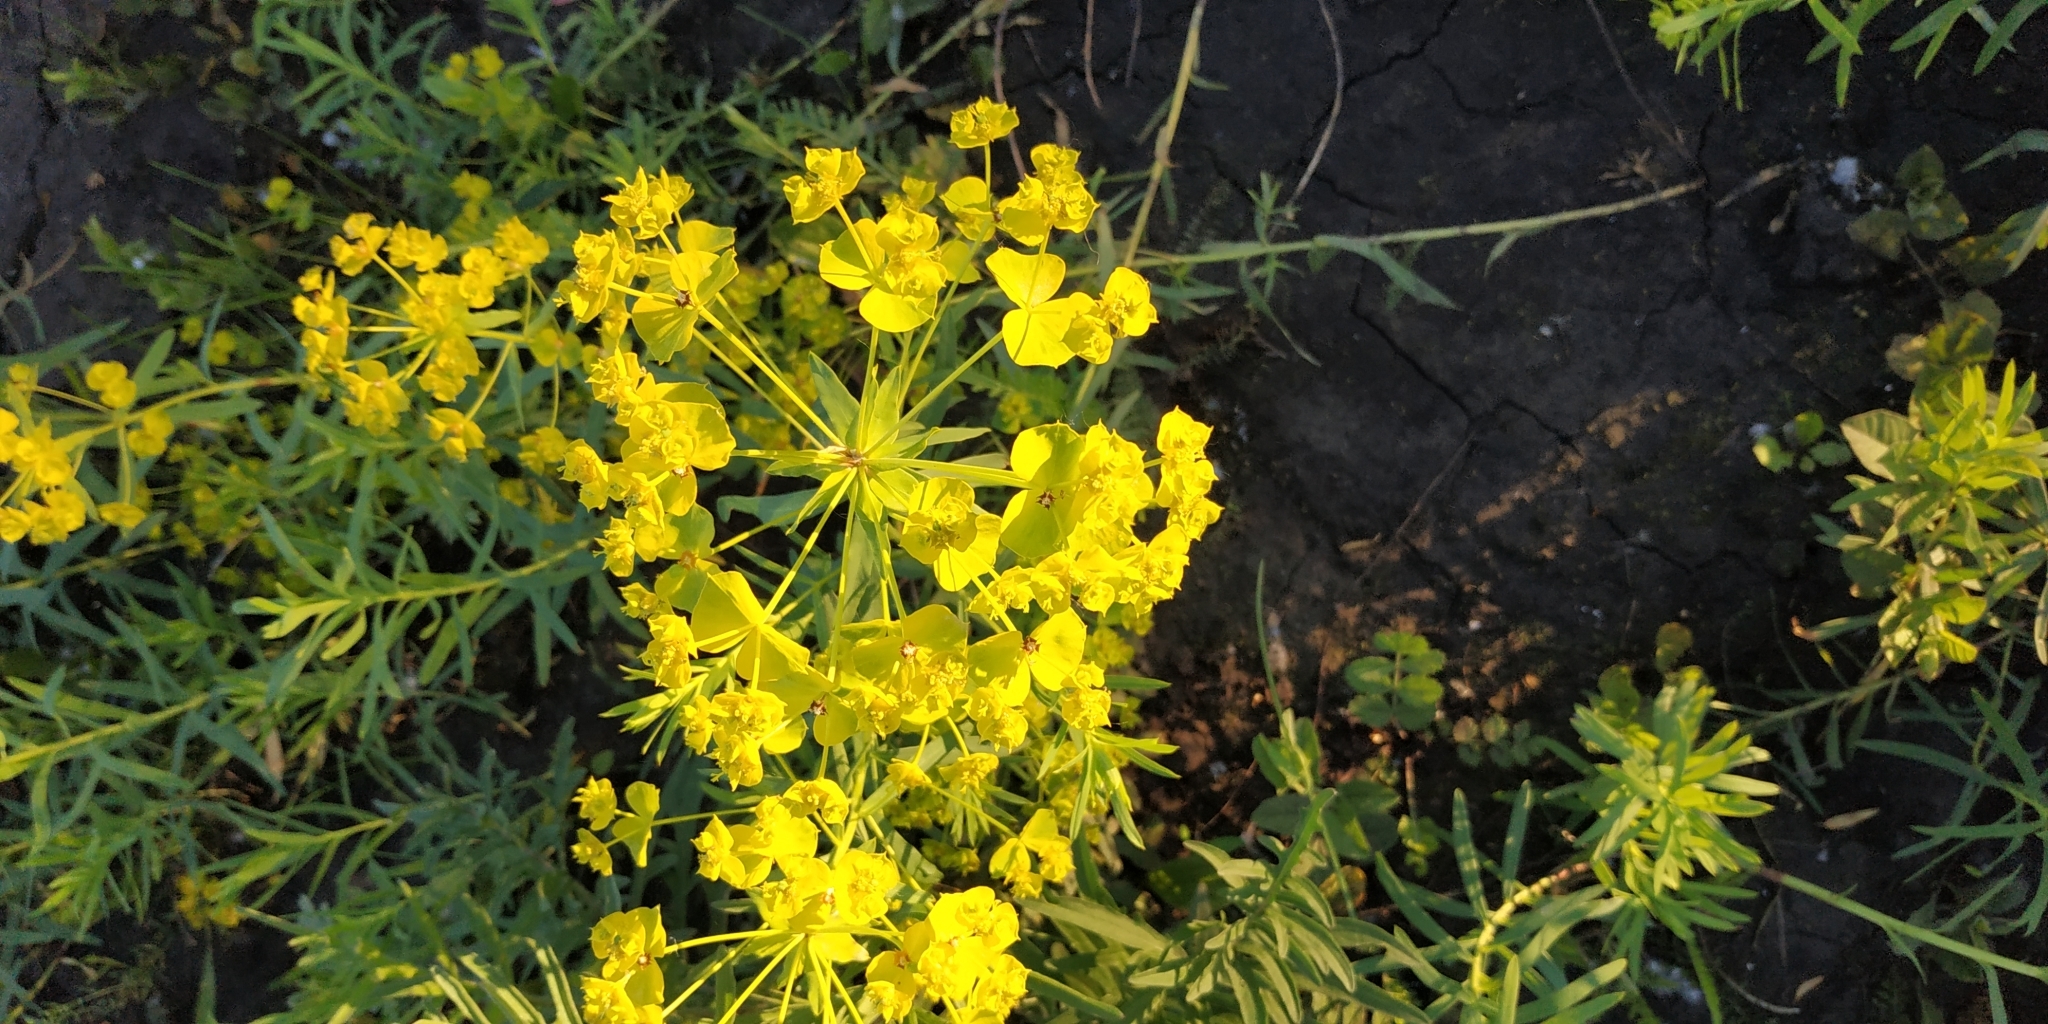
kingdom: Plantae
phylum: Tracheophyta
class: Magnoliopsida
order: Malpighiales
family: Euphorbiaceae
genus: Euphorbia
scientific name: Euphorbia virgata
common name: Leafy spurge
